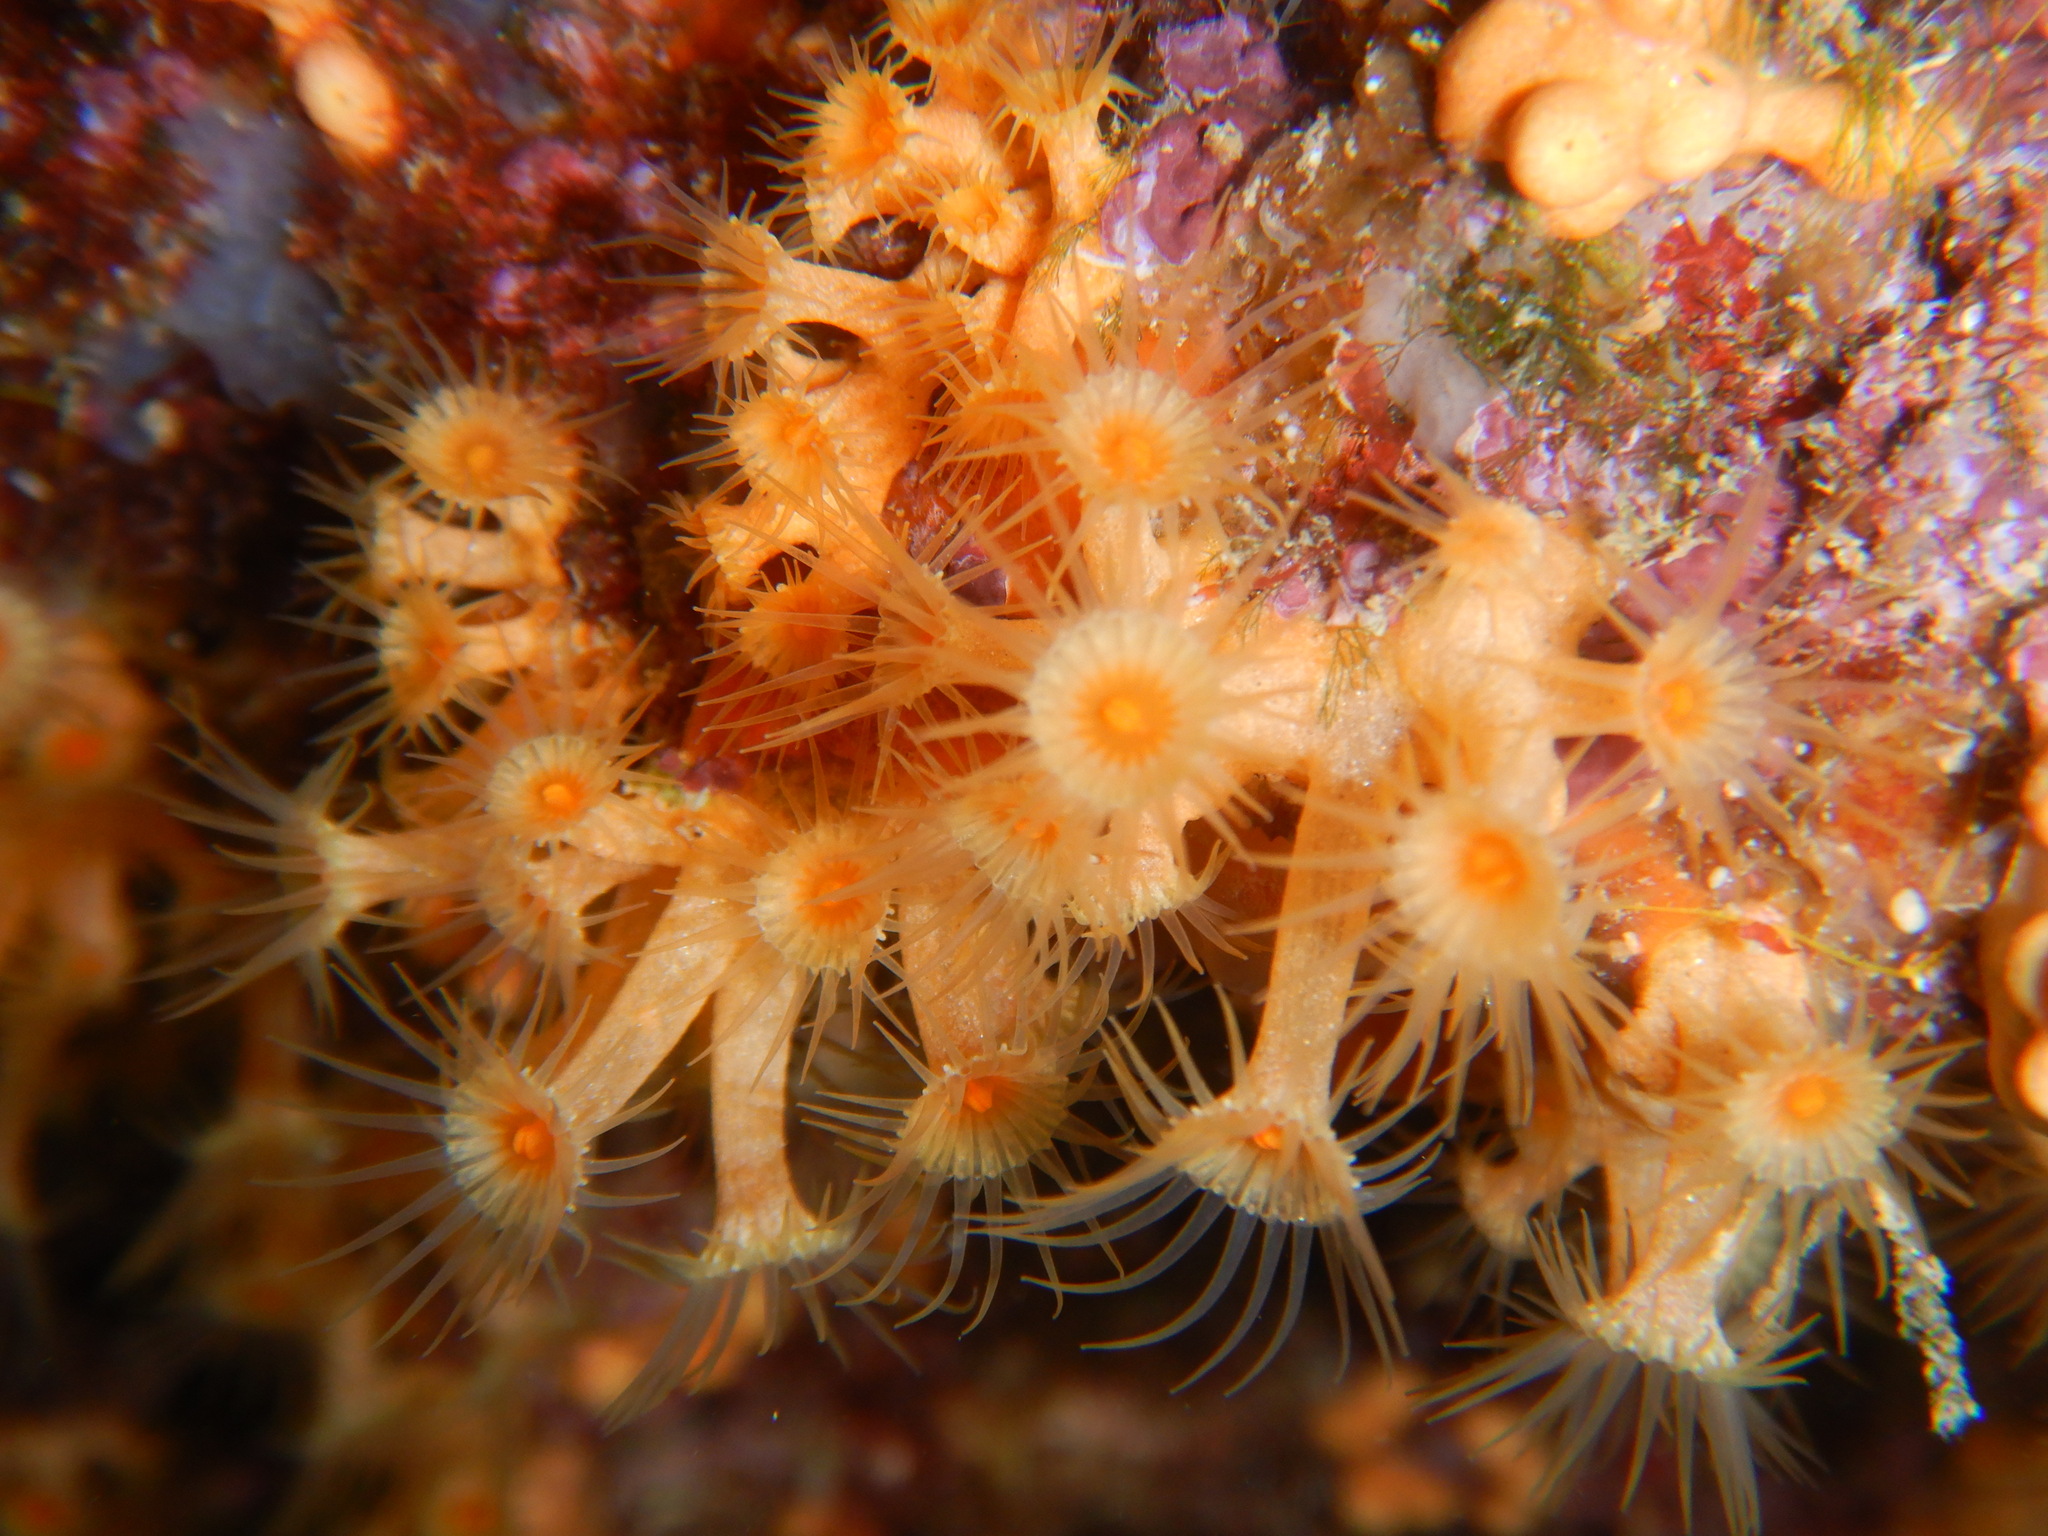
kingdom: Animalia
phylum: Cnidaria
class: Anthozoa
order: Zoantharia
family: Parazoanthidae
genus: Parazoanthus
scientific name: Parazoanthus axinellae
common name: Yellow cluster anemone
